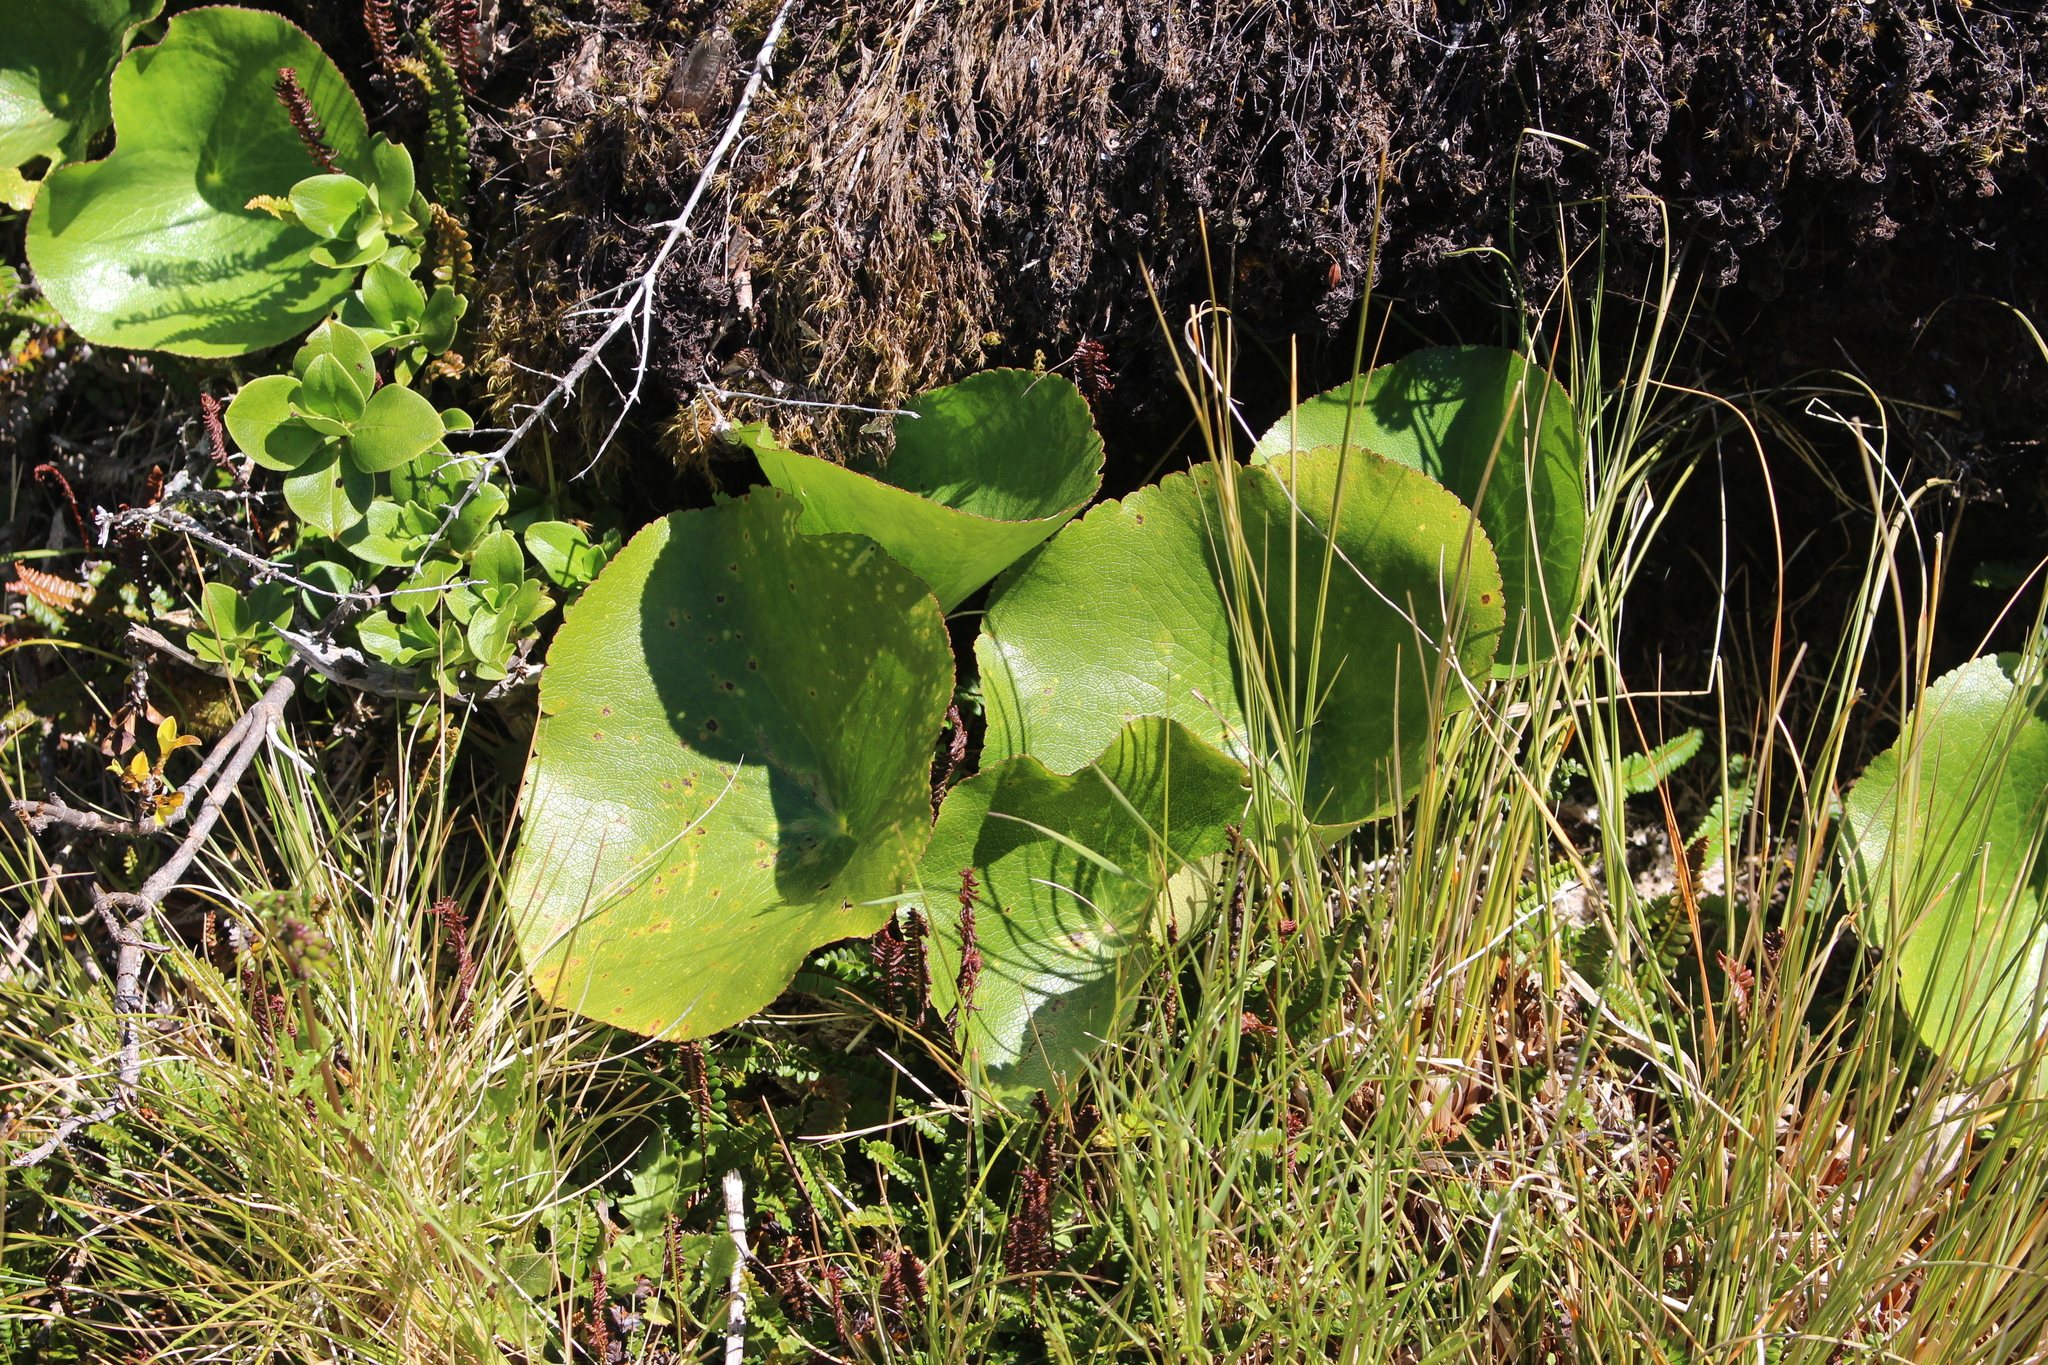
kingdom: Plantae
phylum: Tracheophyta
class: Magnoliopsida
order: Ranunculales
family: Ranunculaceae
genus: Ranunculus
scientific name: Ranunculus lyallii
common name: Mountain-lily
